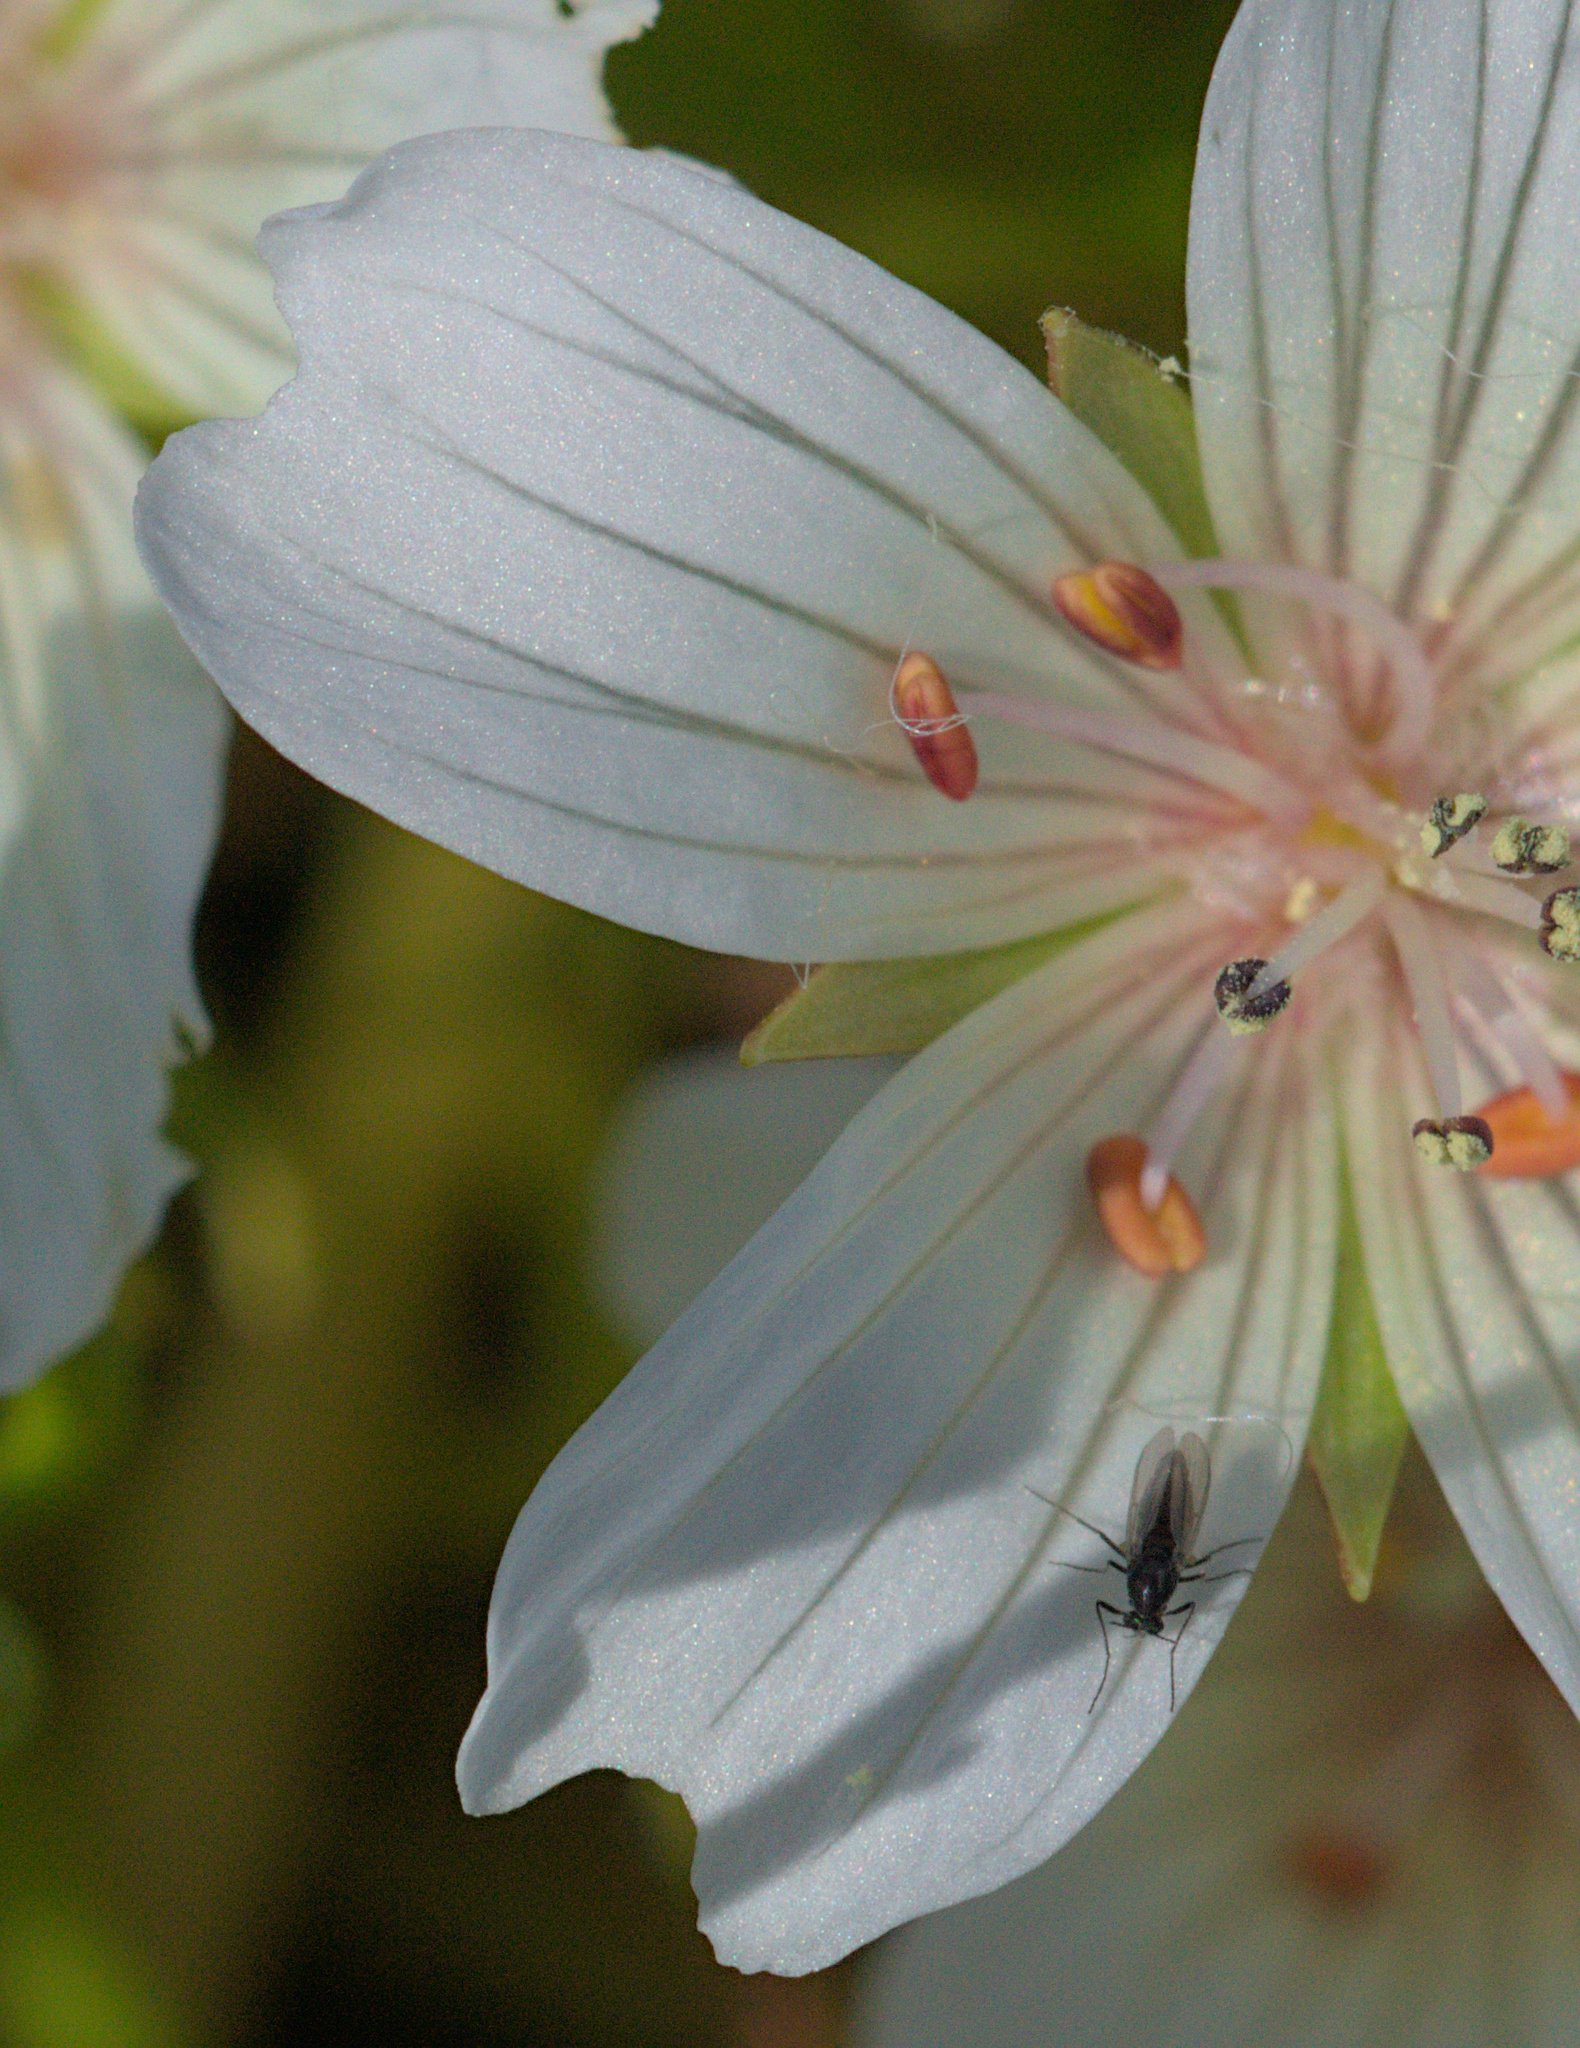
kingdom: Plantae
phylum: Tracheophyta
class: Magnoliopsida
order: Brassicales
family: Limnanthaceae
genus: Limnanthes
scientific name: Limnanthes douglasii
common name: Meadow-foam
